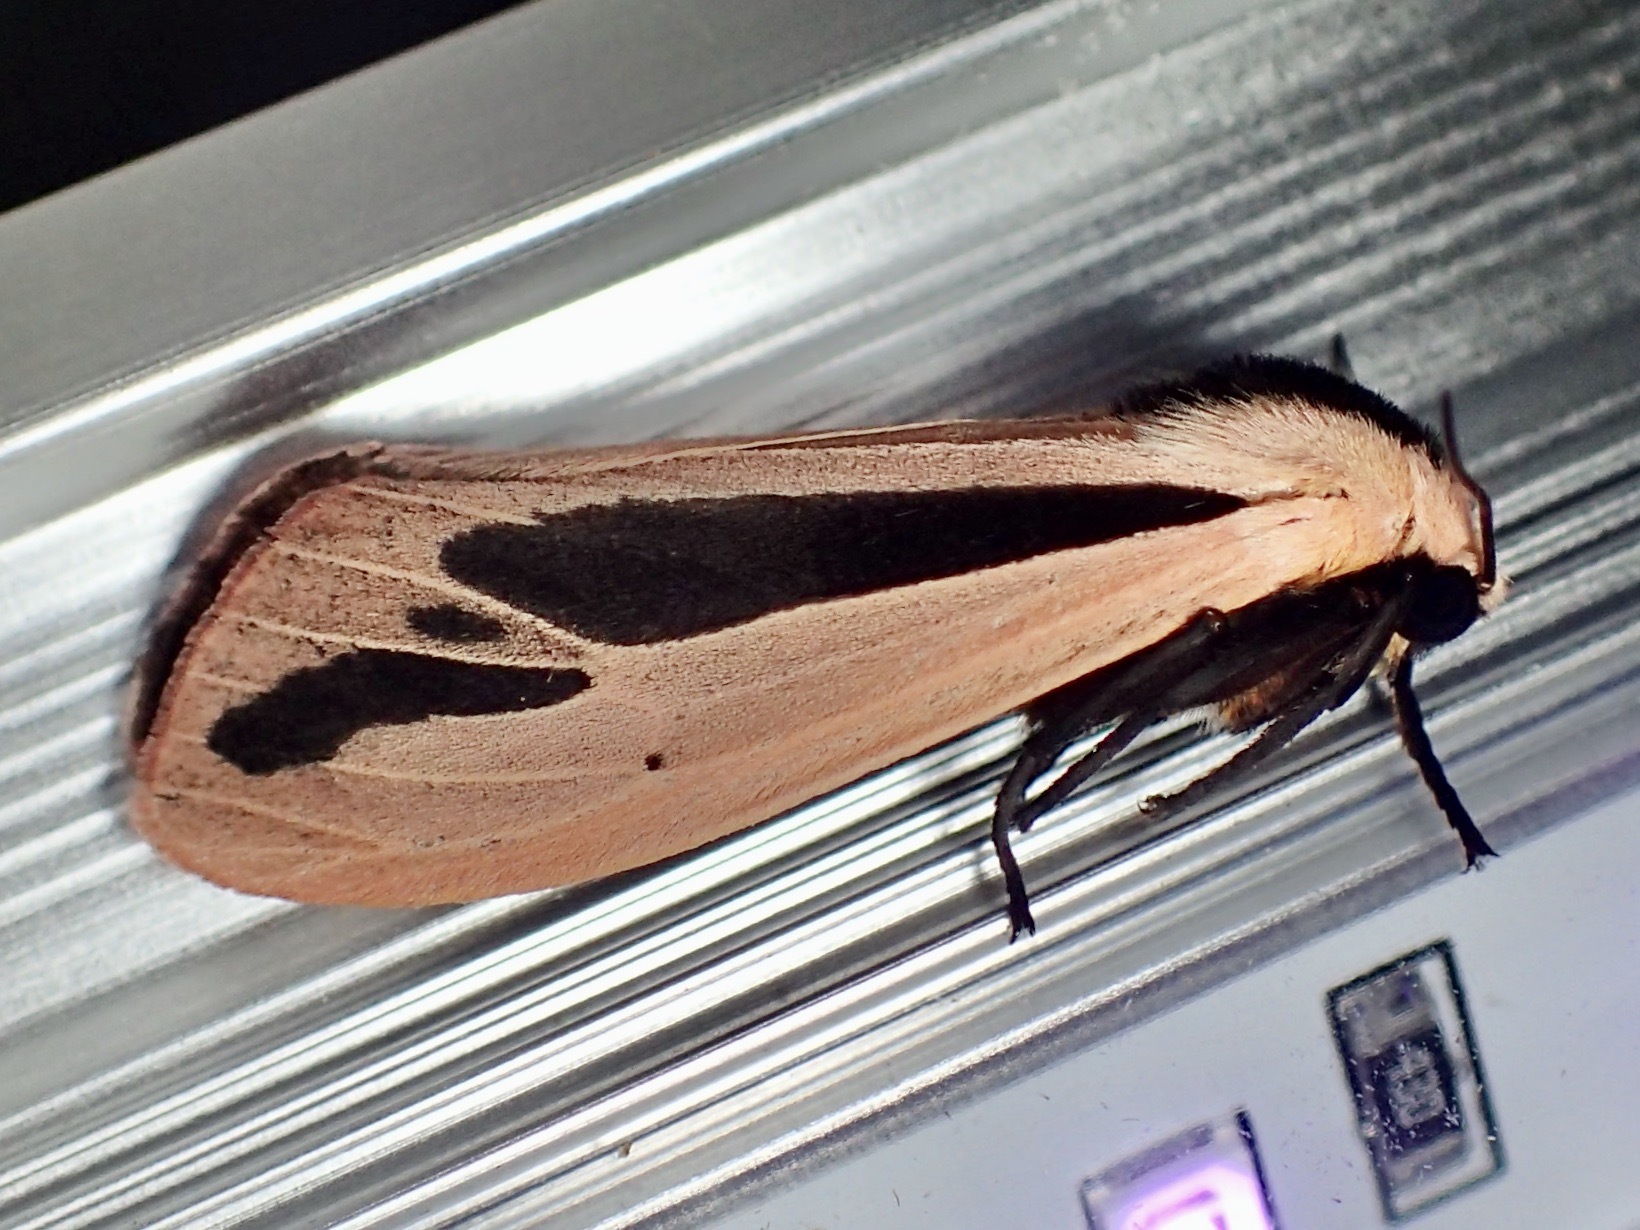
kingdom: Animalia
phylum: Arthropoda
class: Insecta
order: Lepidoptera
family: Erebidae
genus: Creatonotos
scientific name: Creatonotos gangis
